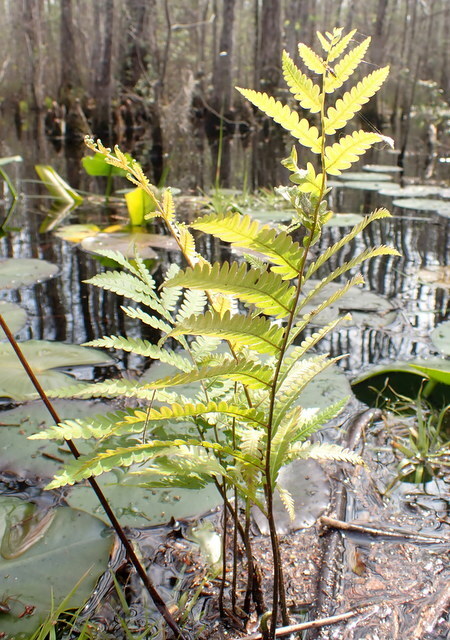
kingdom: Plantae
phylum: Tracheophyta
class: Polypodiopsida
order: Polypodiales
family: Blechnaceae
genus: Anchistea
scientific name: Anchistea virginica
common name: Virginia chain fern
